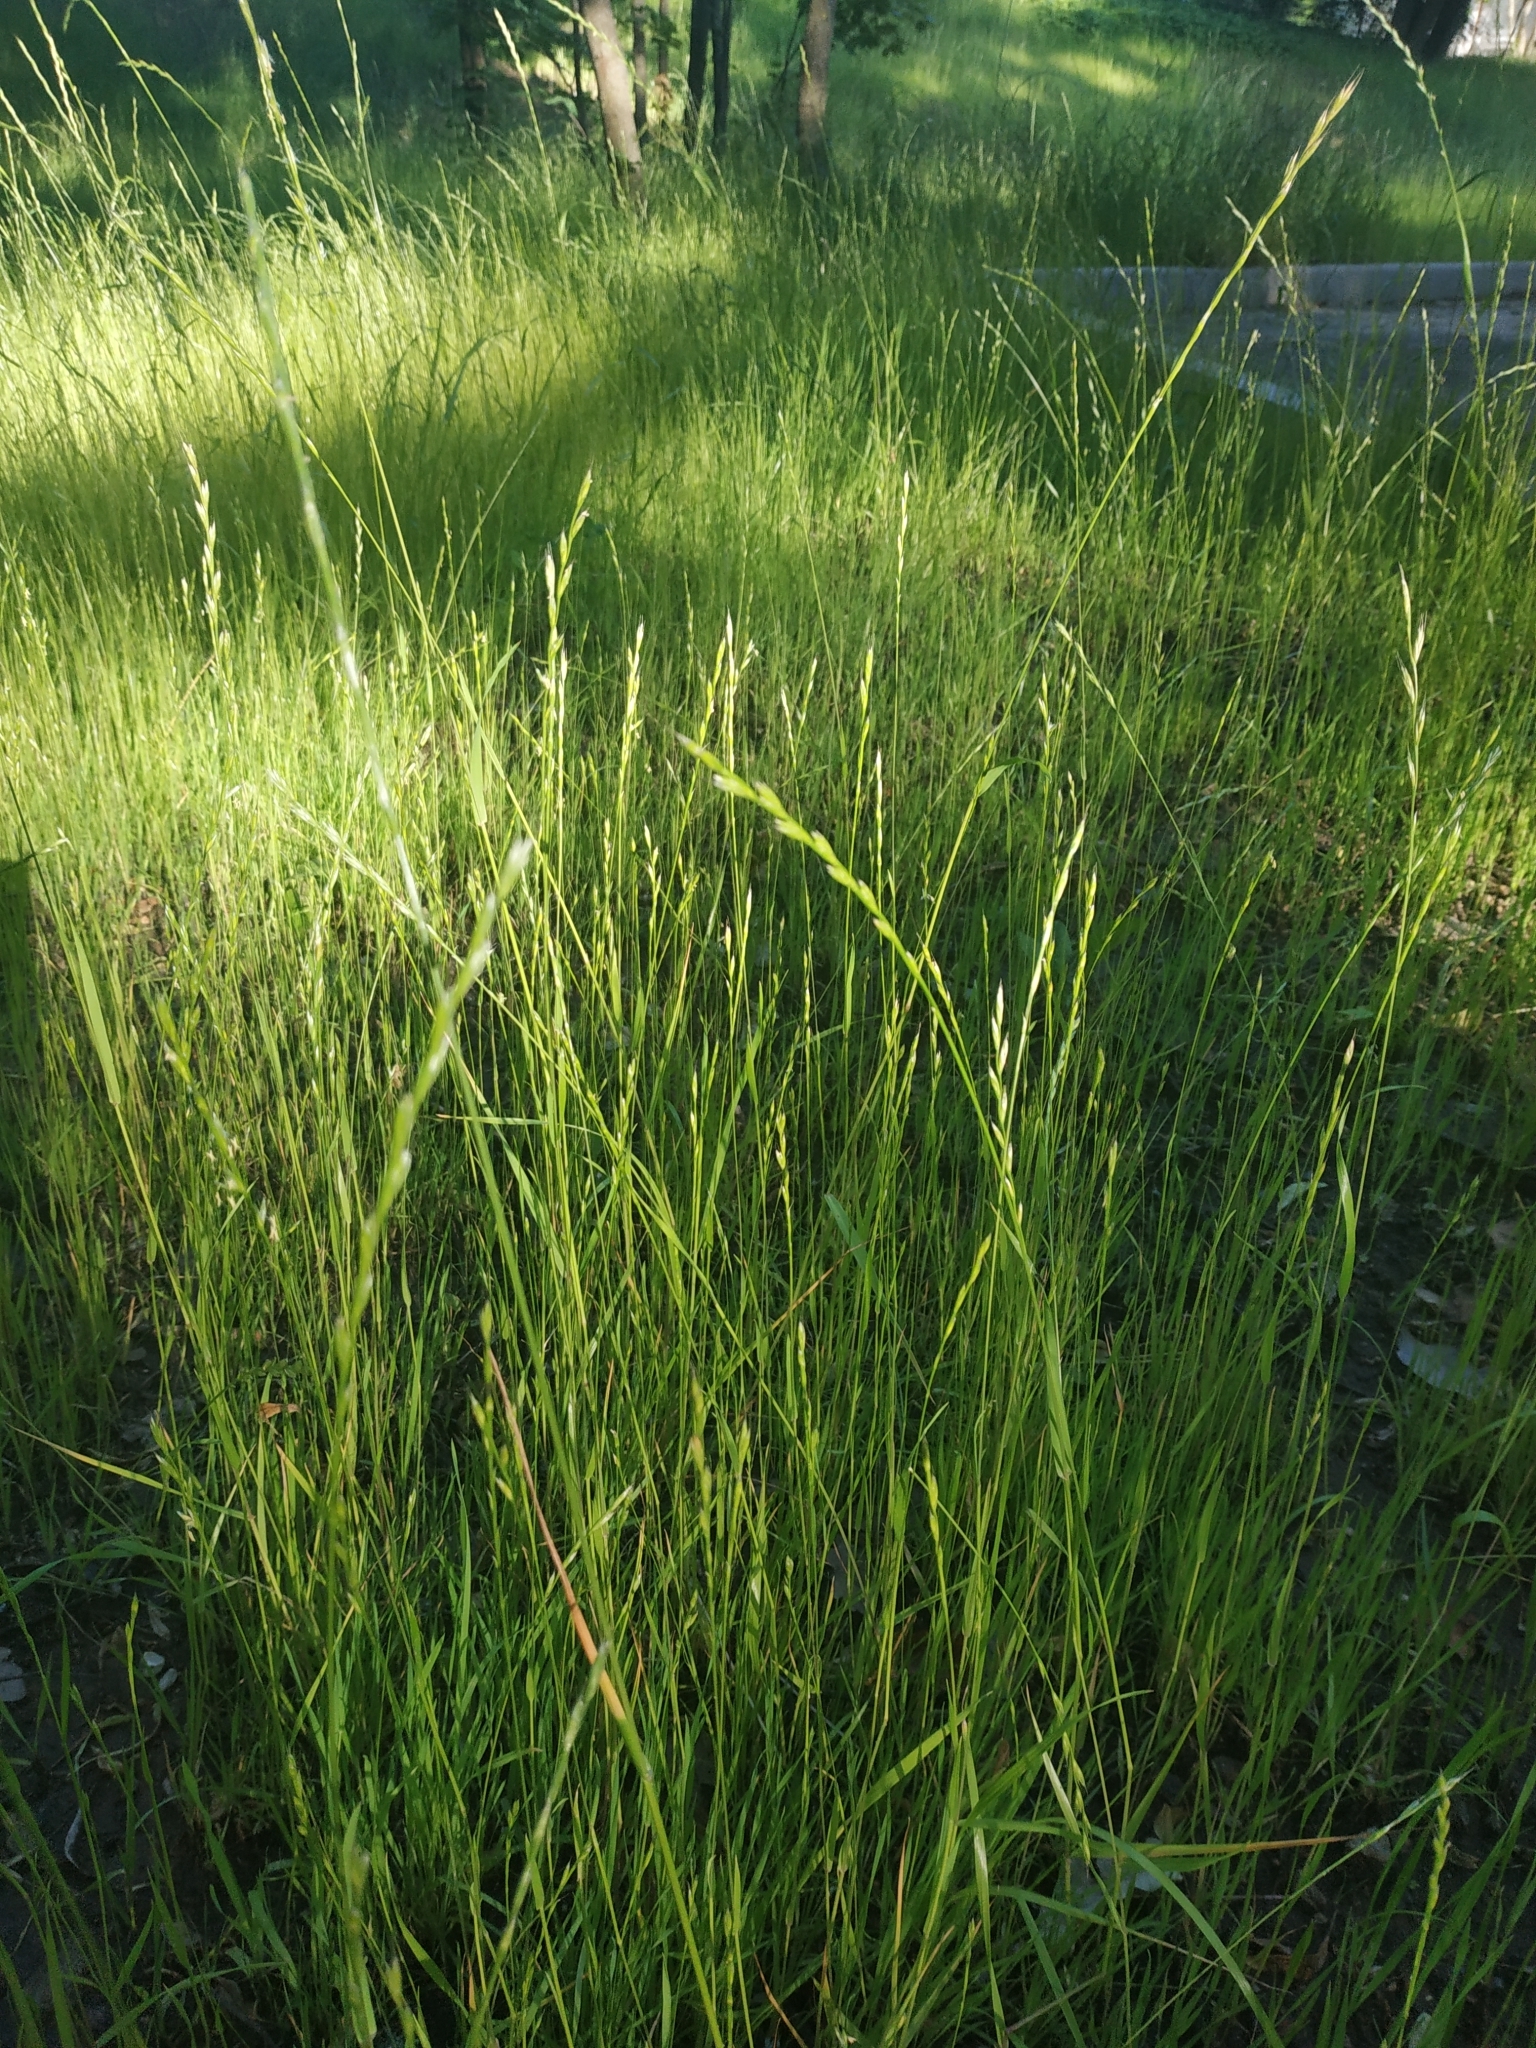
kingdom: Plantae
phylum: Tracheophyta
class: Liliopsida
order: Poales
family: Poaceae
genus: Lolium
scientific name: Lolium perenne
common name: Perennial ryegrass
